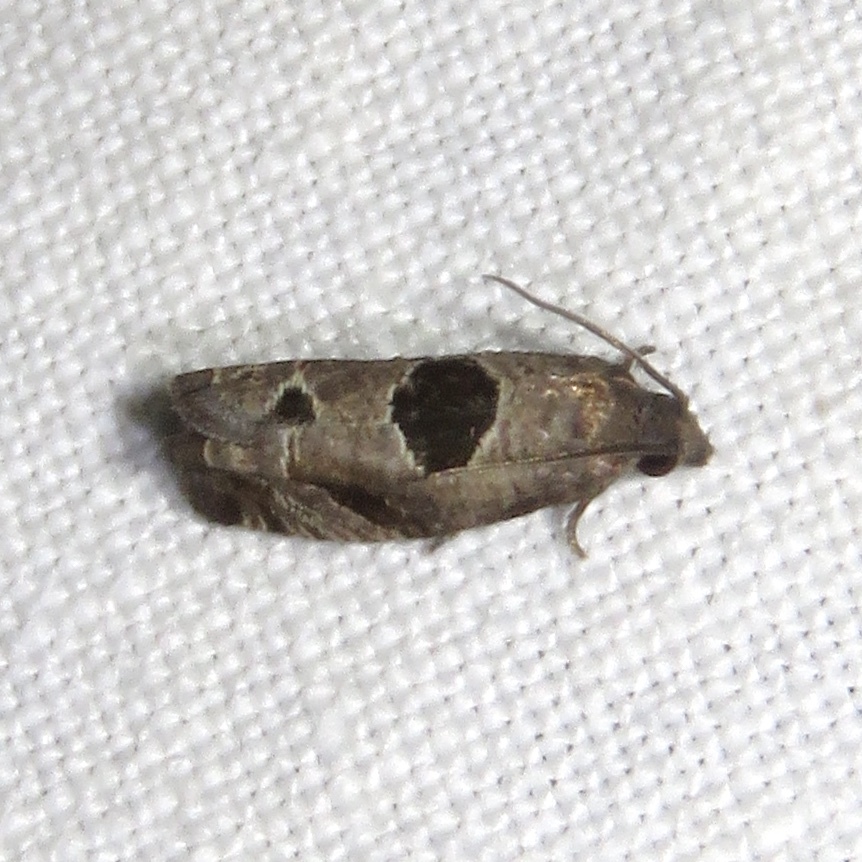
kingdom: Animalia
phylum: Arthropoda
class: Insecta
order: Lepidoptera
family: Tortricidae
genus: Epiblema
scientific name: Epiblema brightonana
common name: Brighton's epiblema moth
